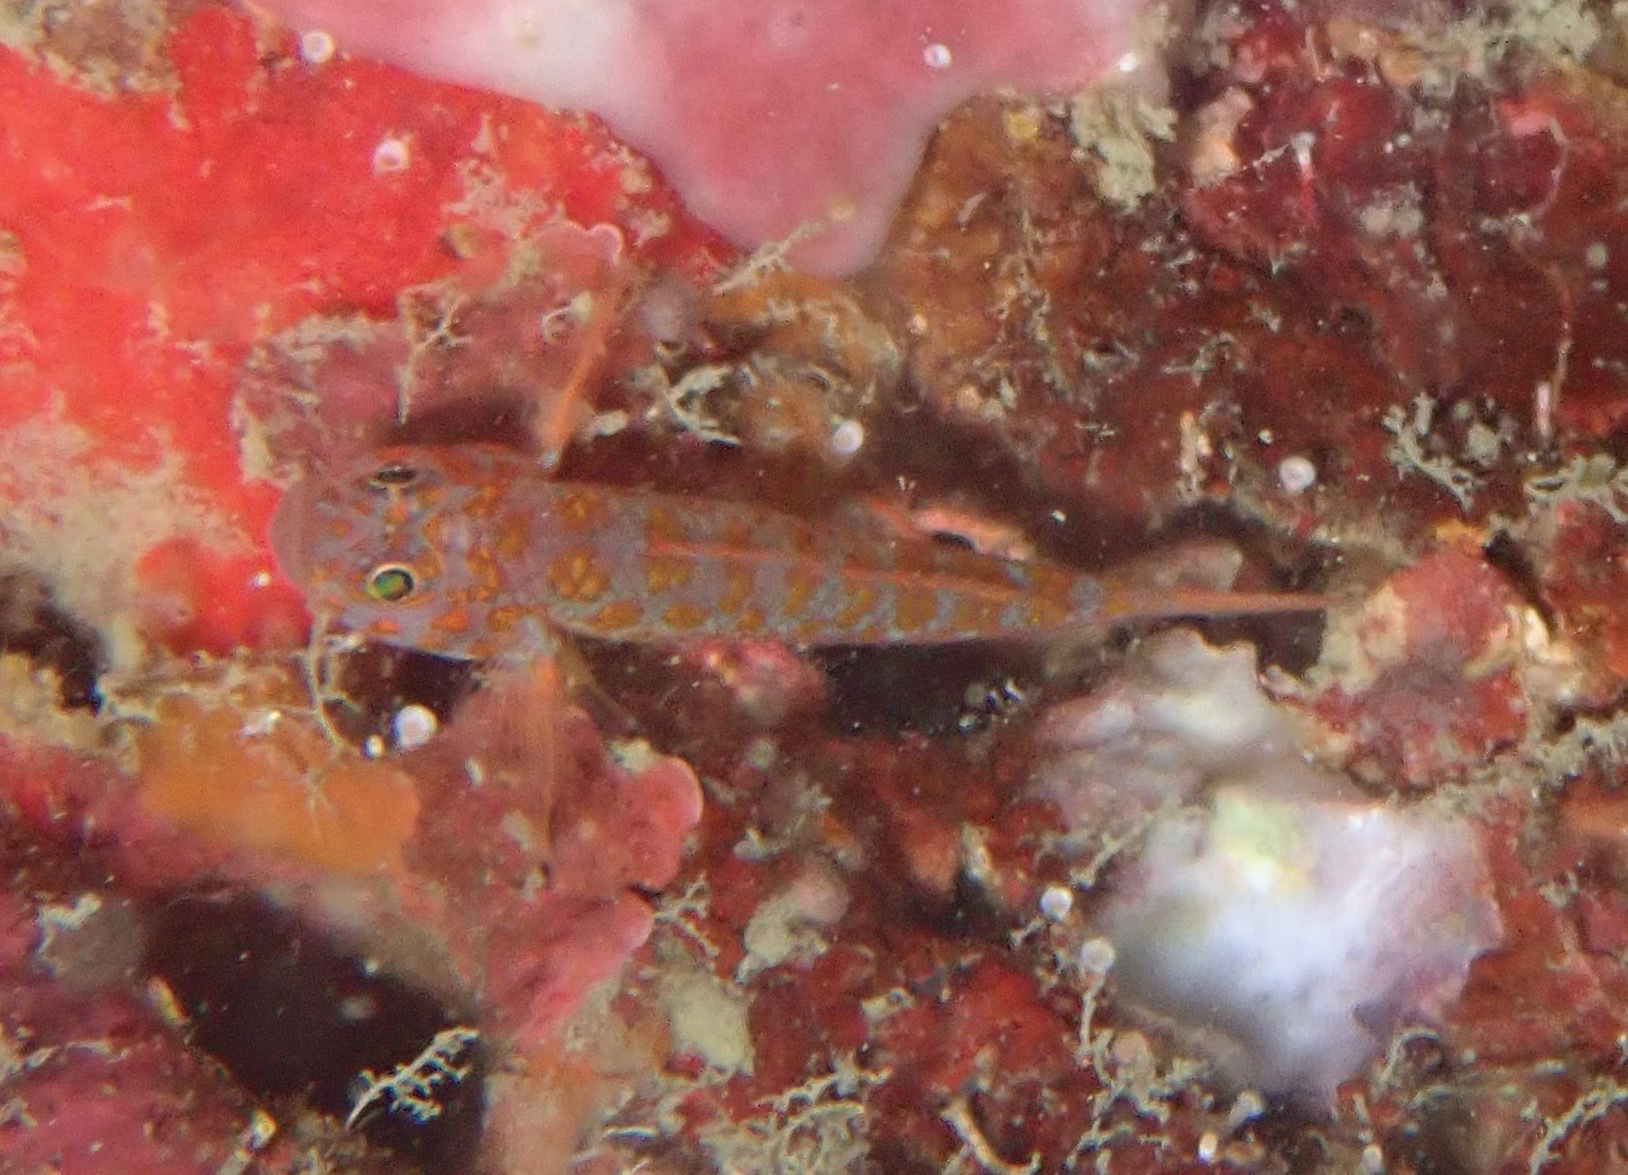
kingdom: Animalia
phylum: Chordata
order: Perciformes
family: Gobiidae
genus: Trimma
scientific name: Trimma ukkriti
